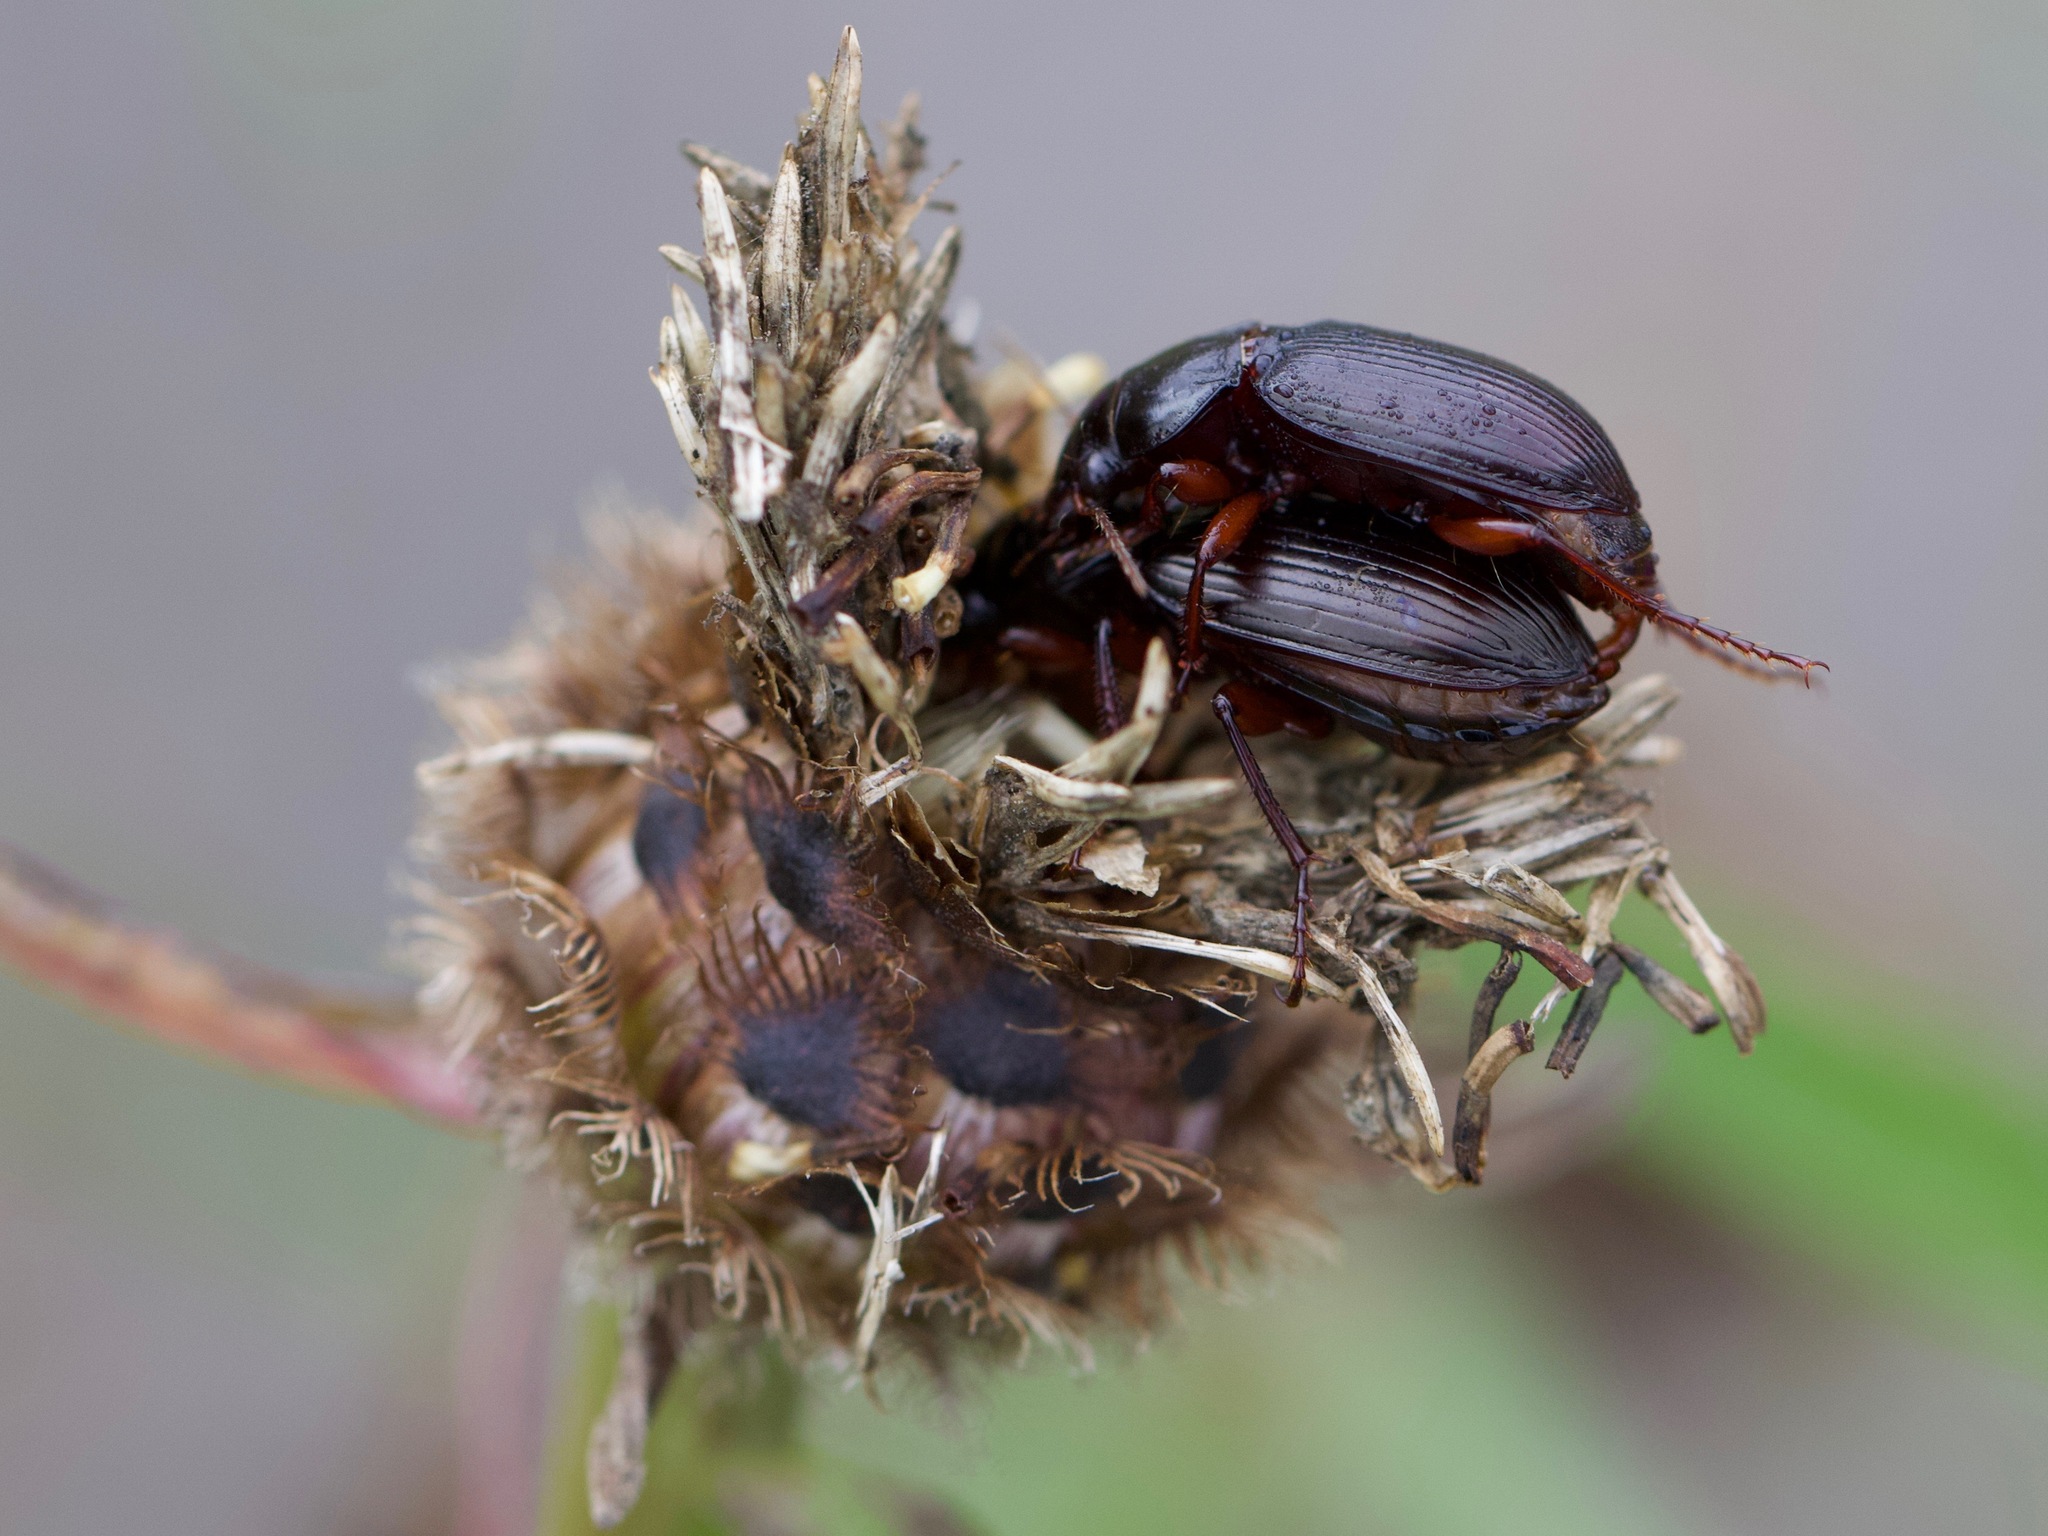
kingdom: Animalia
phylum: Arthropoda
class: Insecta
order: Coleoptera
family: Carabidae
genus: Amara
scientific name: Amara aulica
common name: Princely harp ground beetle
